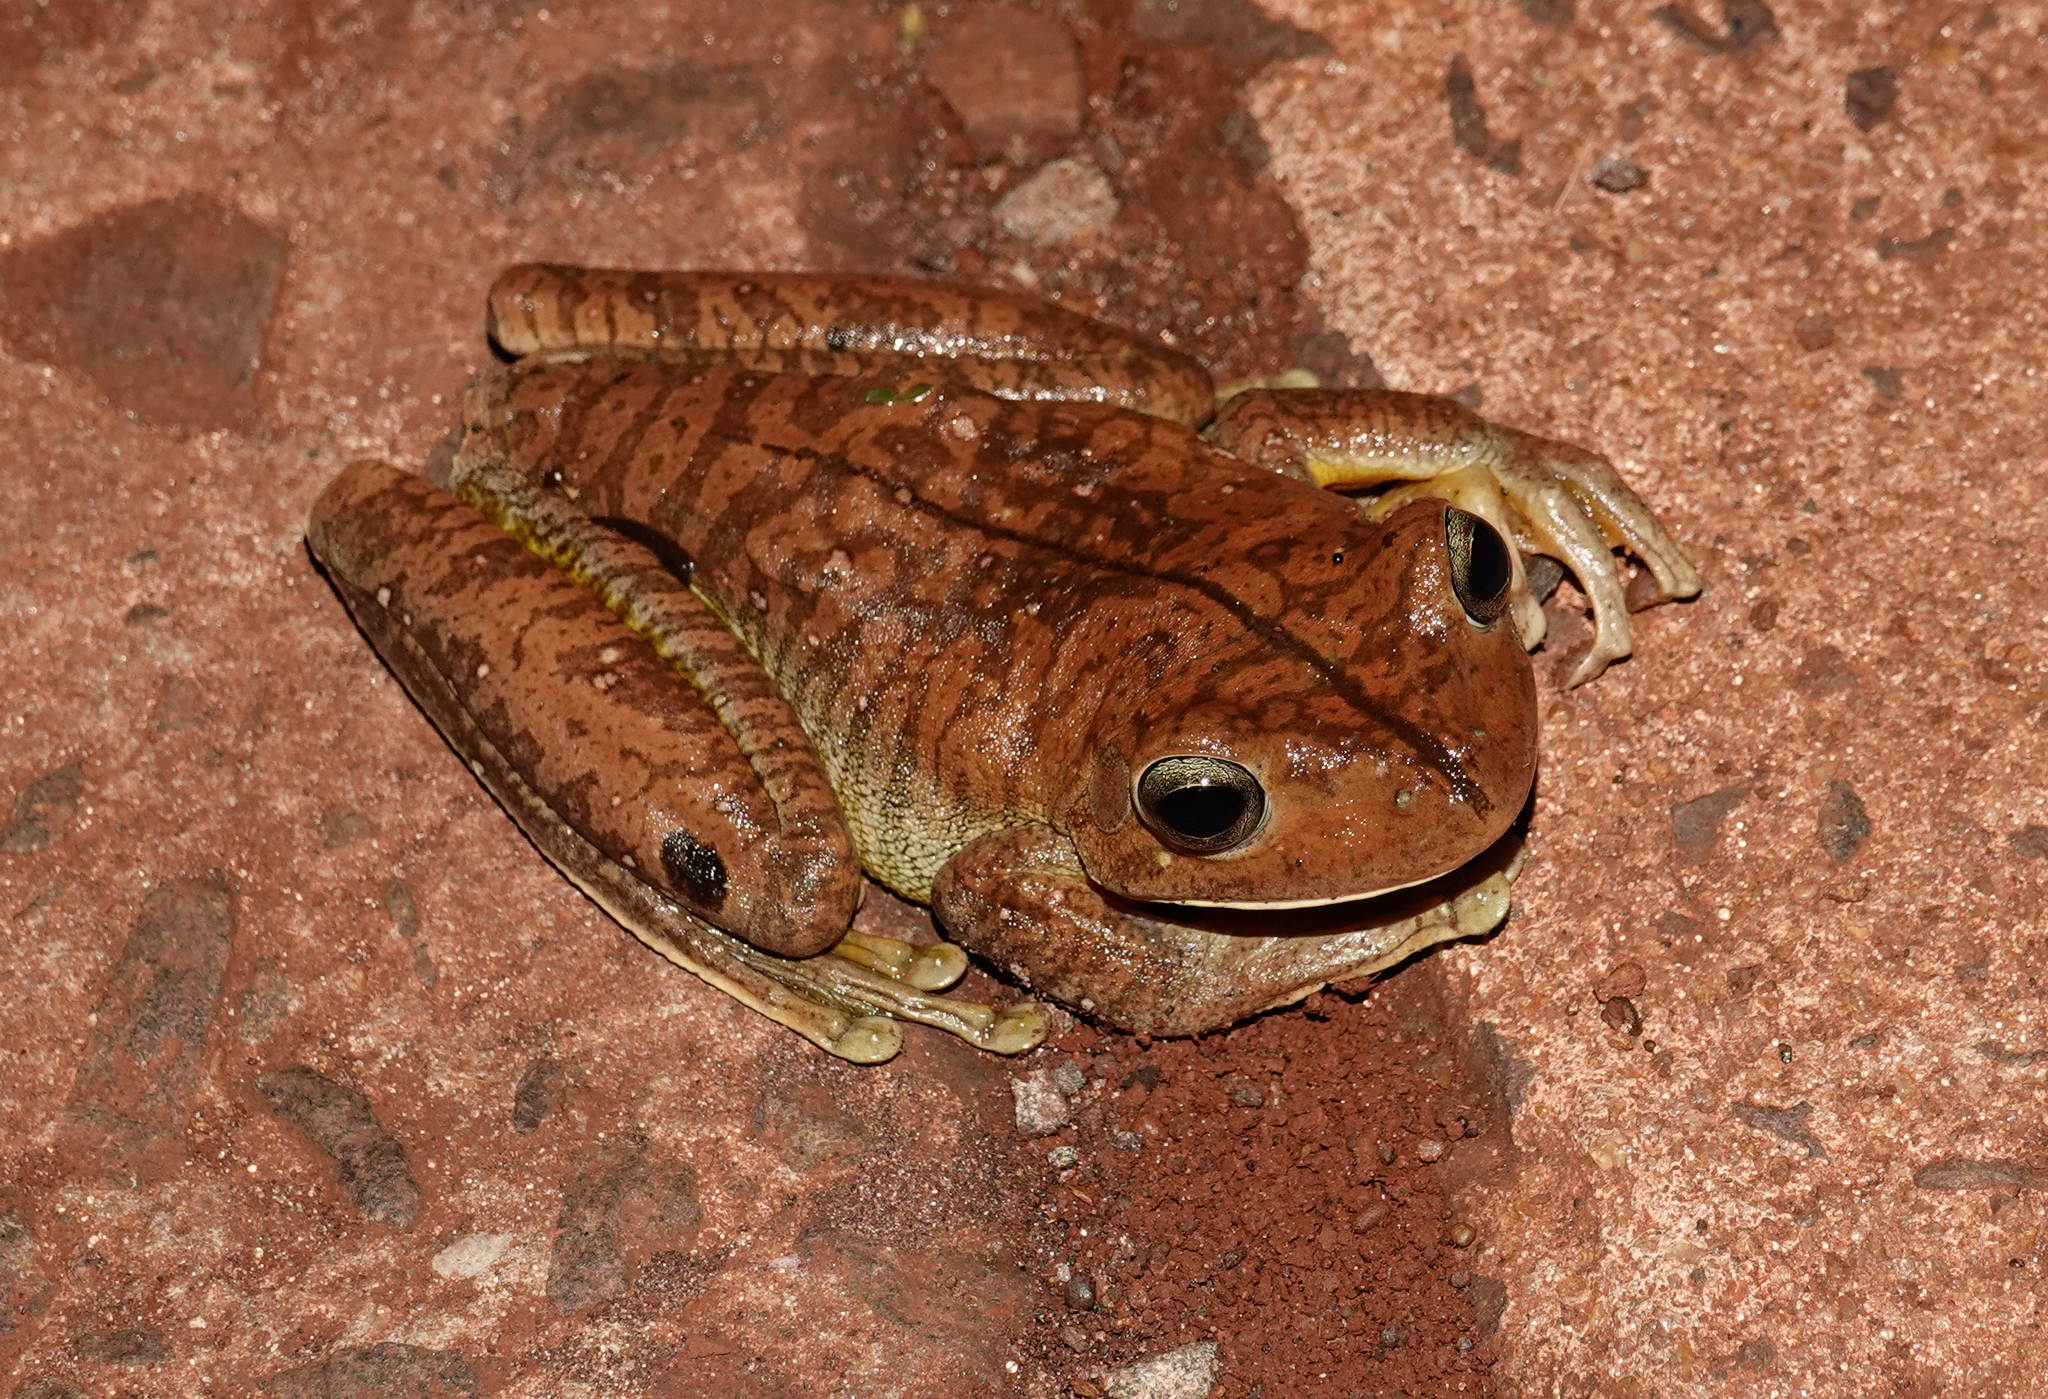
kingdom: Animalia
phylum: Chordata
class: Amphibia
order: Anura
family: Hylidae
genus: Boana
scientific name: Boana faber
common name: Blacksmith tree frog
